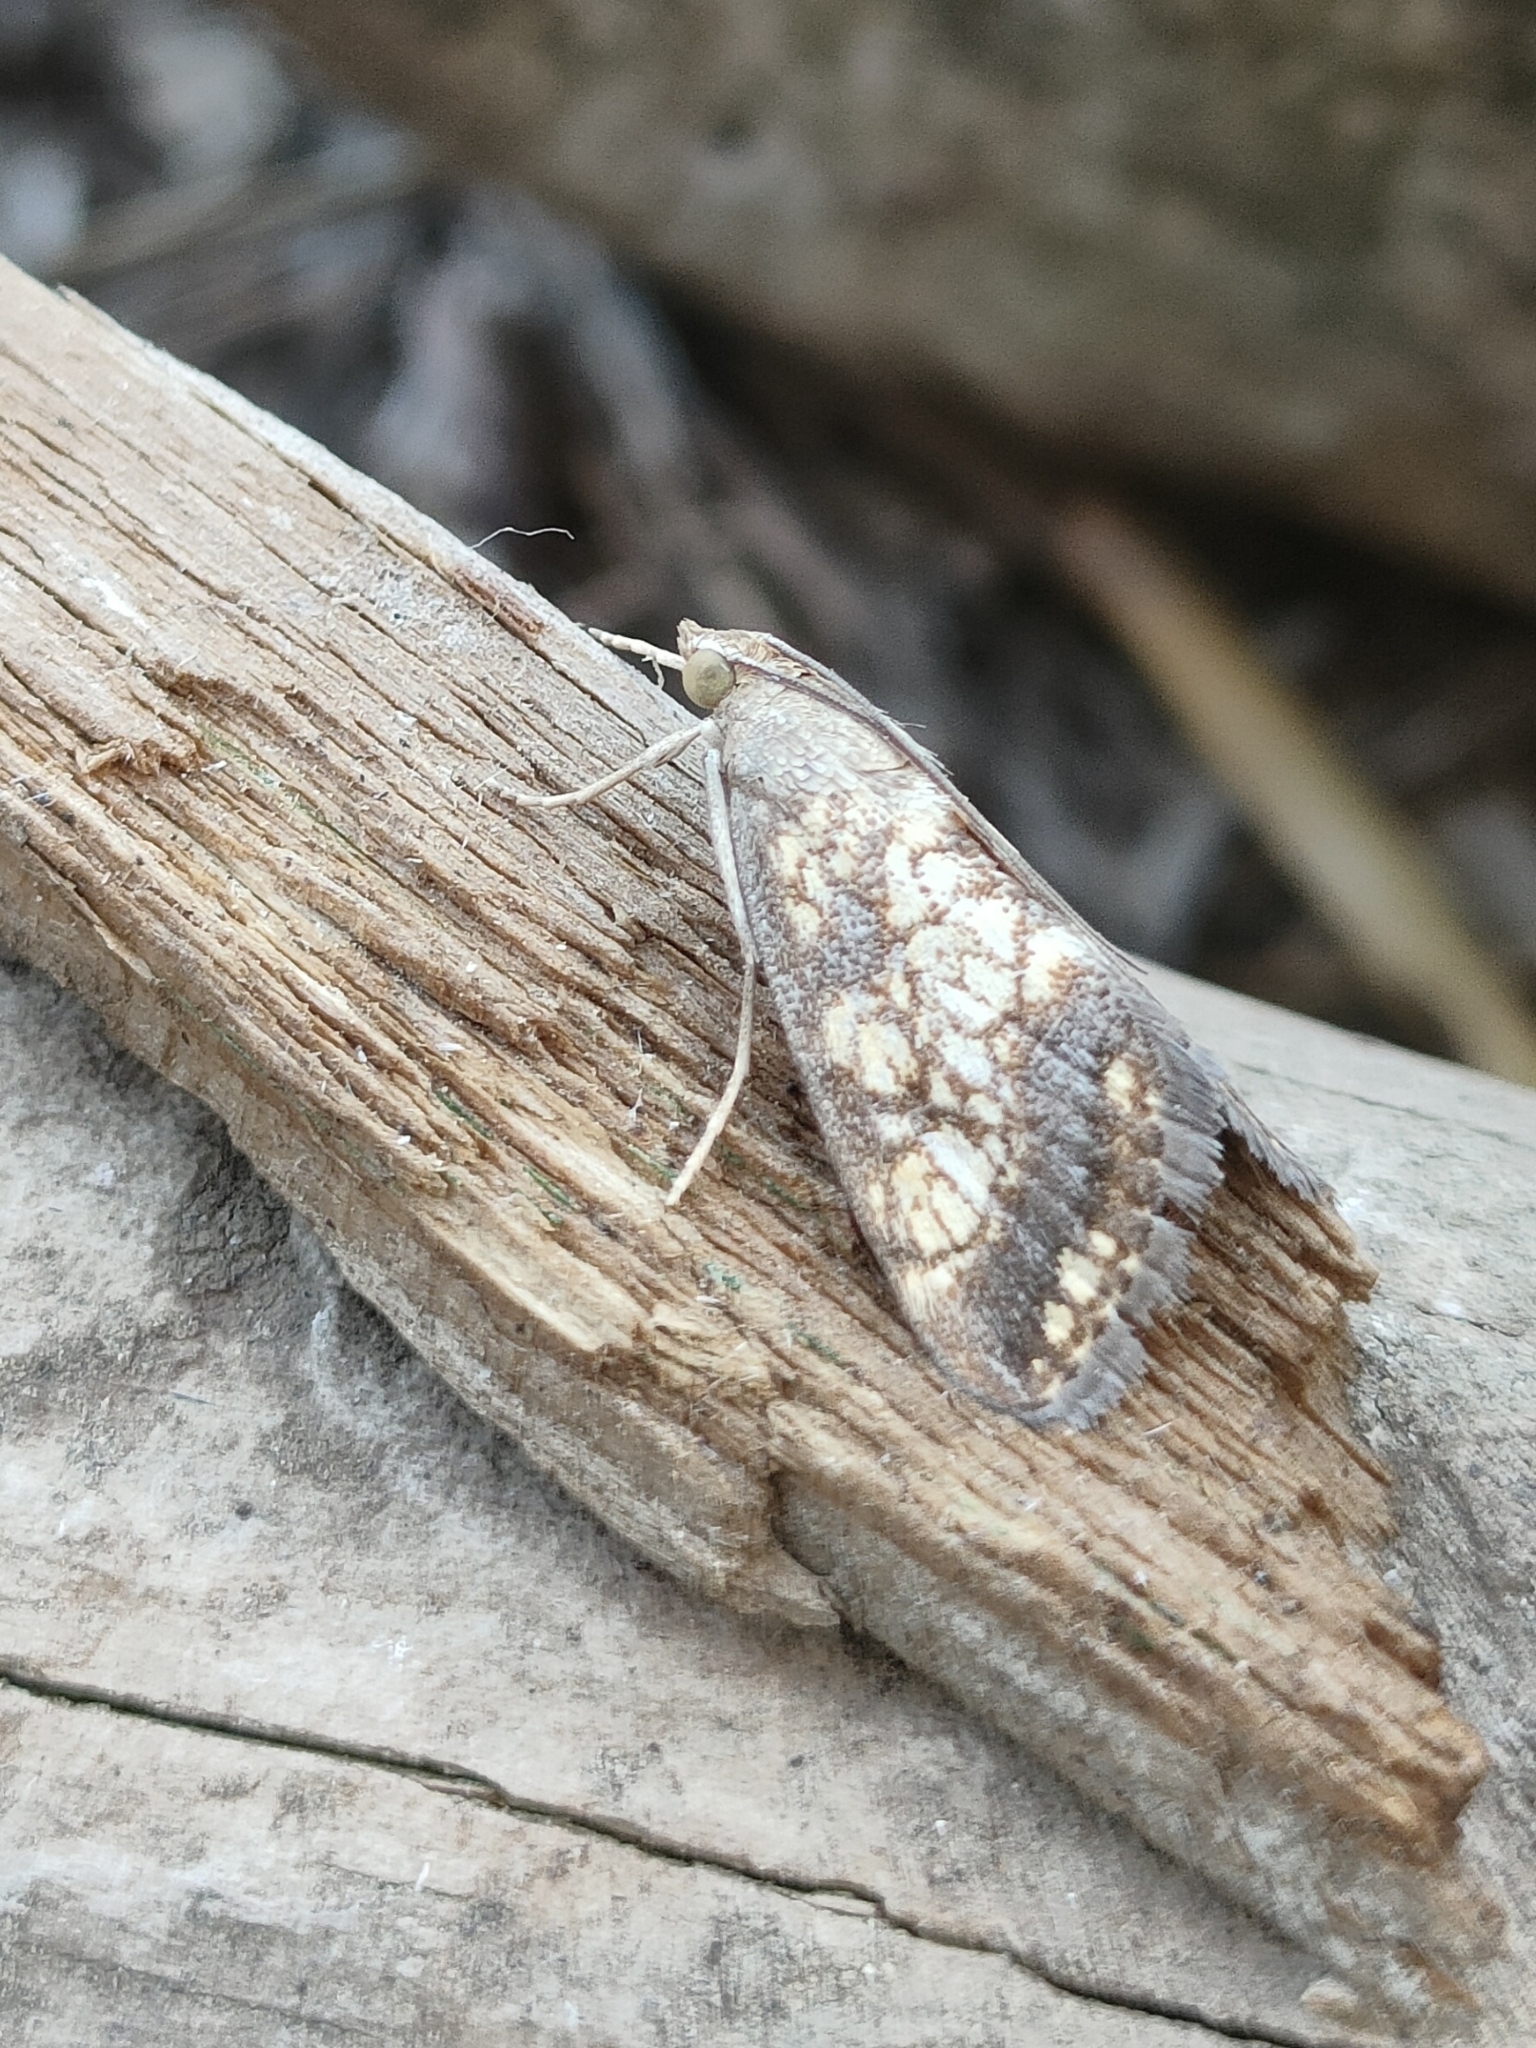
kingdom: Animalia
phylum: Arthropoda
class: Insecta
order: Lepidoptera
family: Crambidae
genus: Evergestis
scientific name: Evergestis politalis
